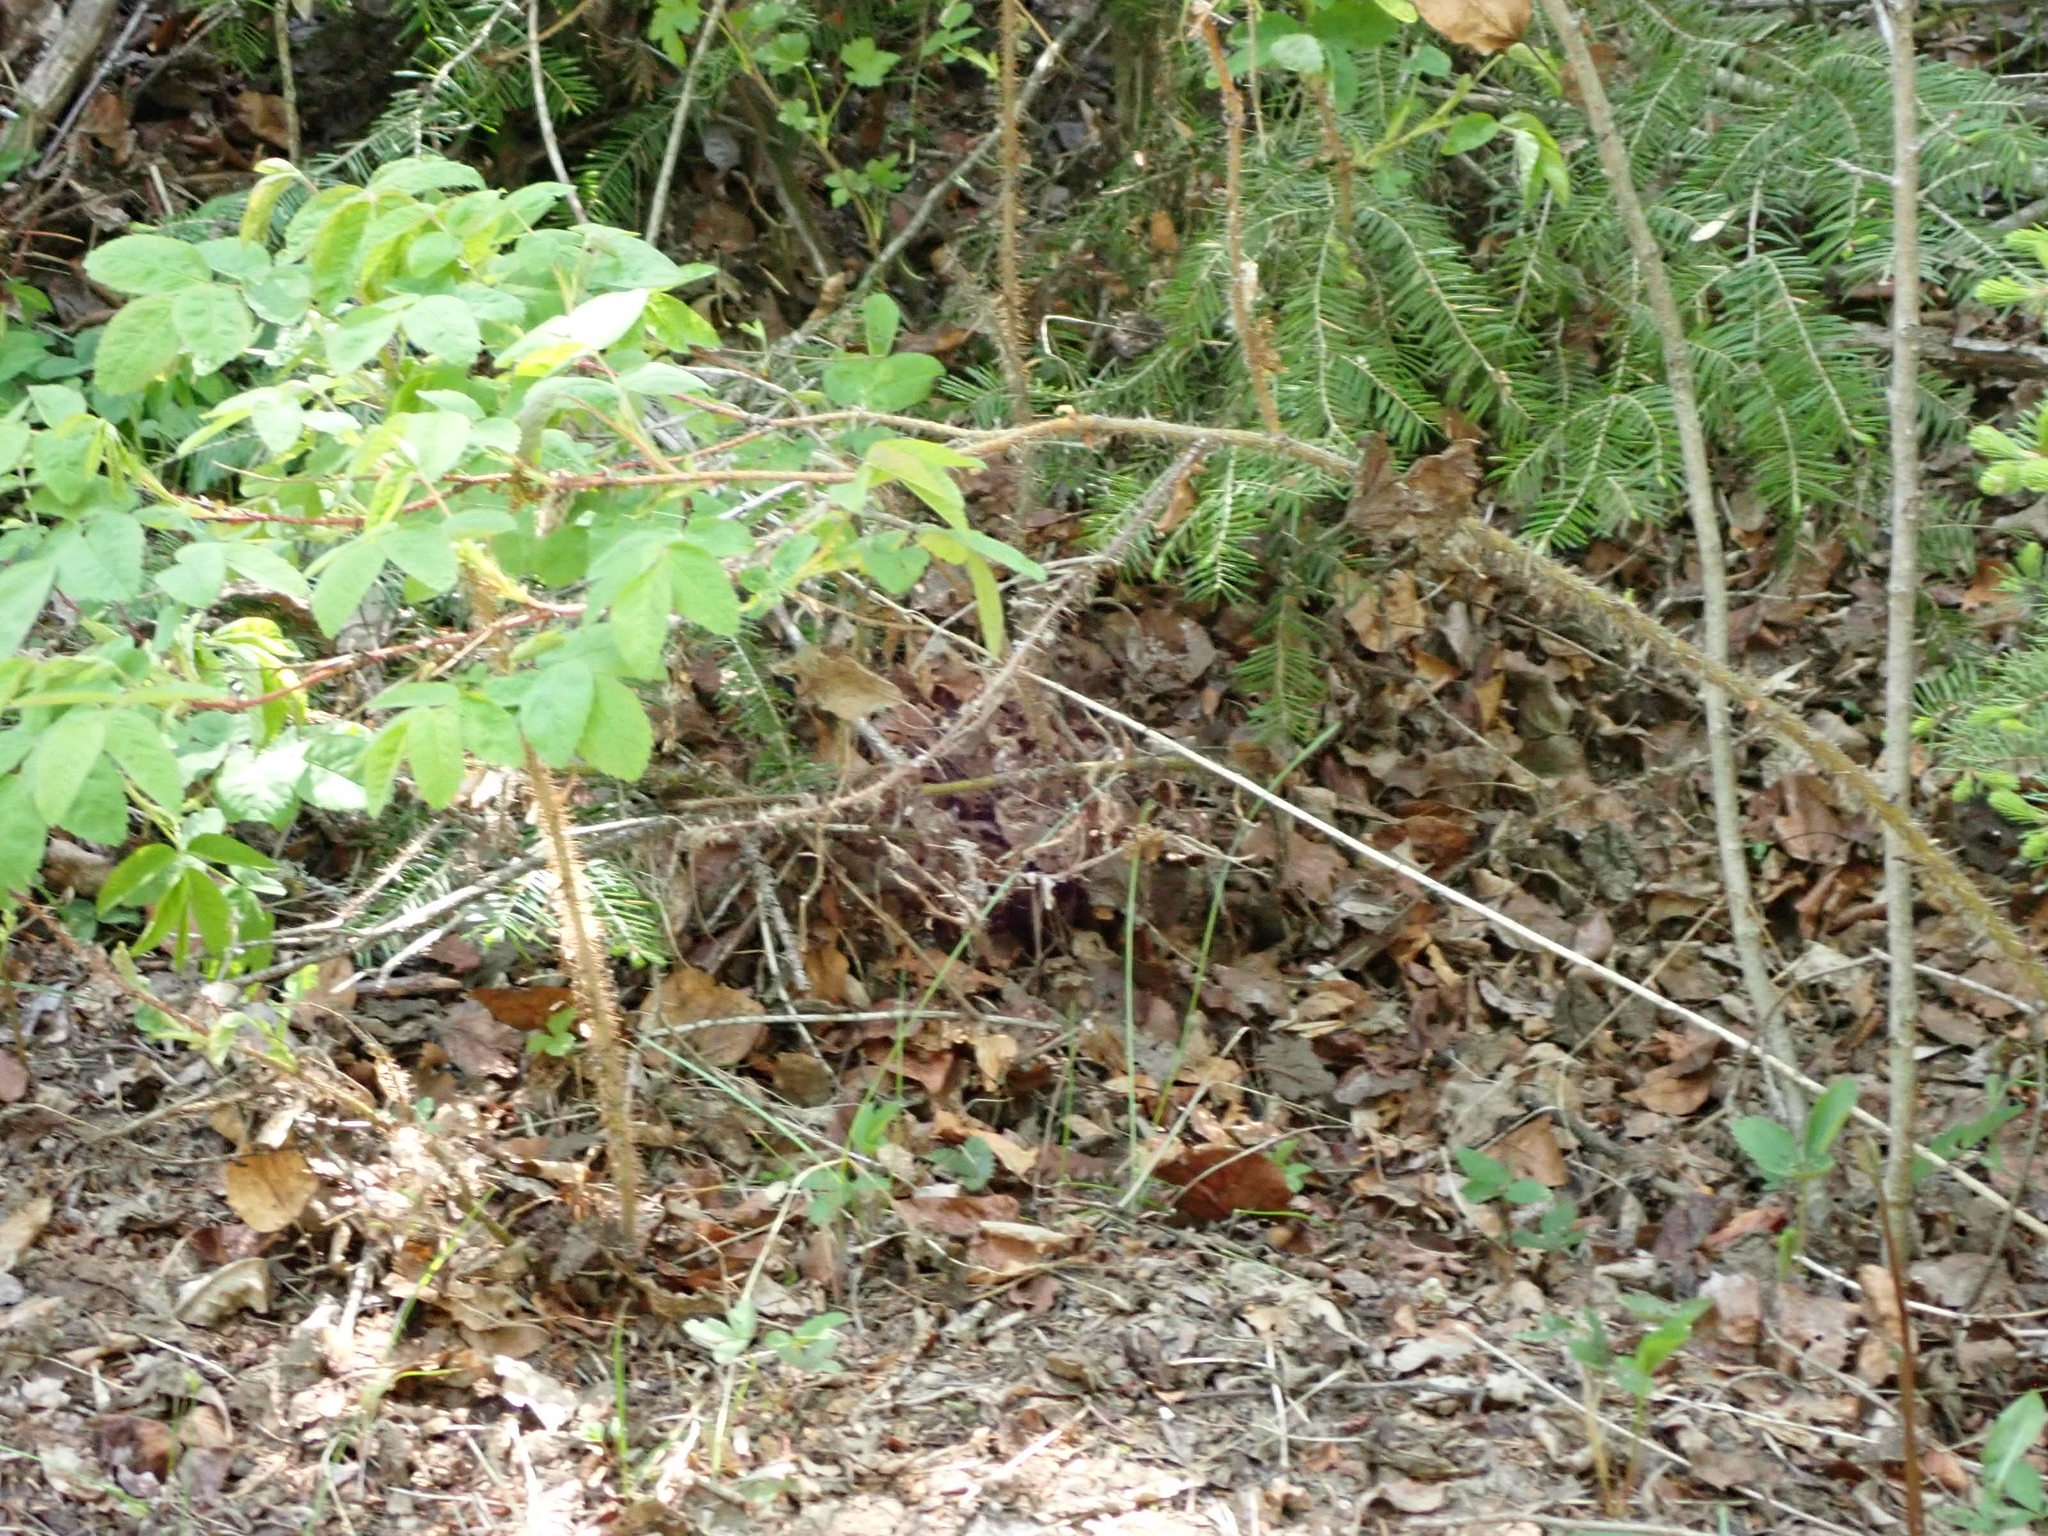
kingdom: Plantae
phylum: Tracheophyta
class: Magnoliopsida
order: Rosales
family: Rosaceae
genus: Rosa
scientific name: Rosa acicularis
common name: Prickly rose
